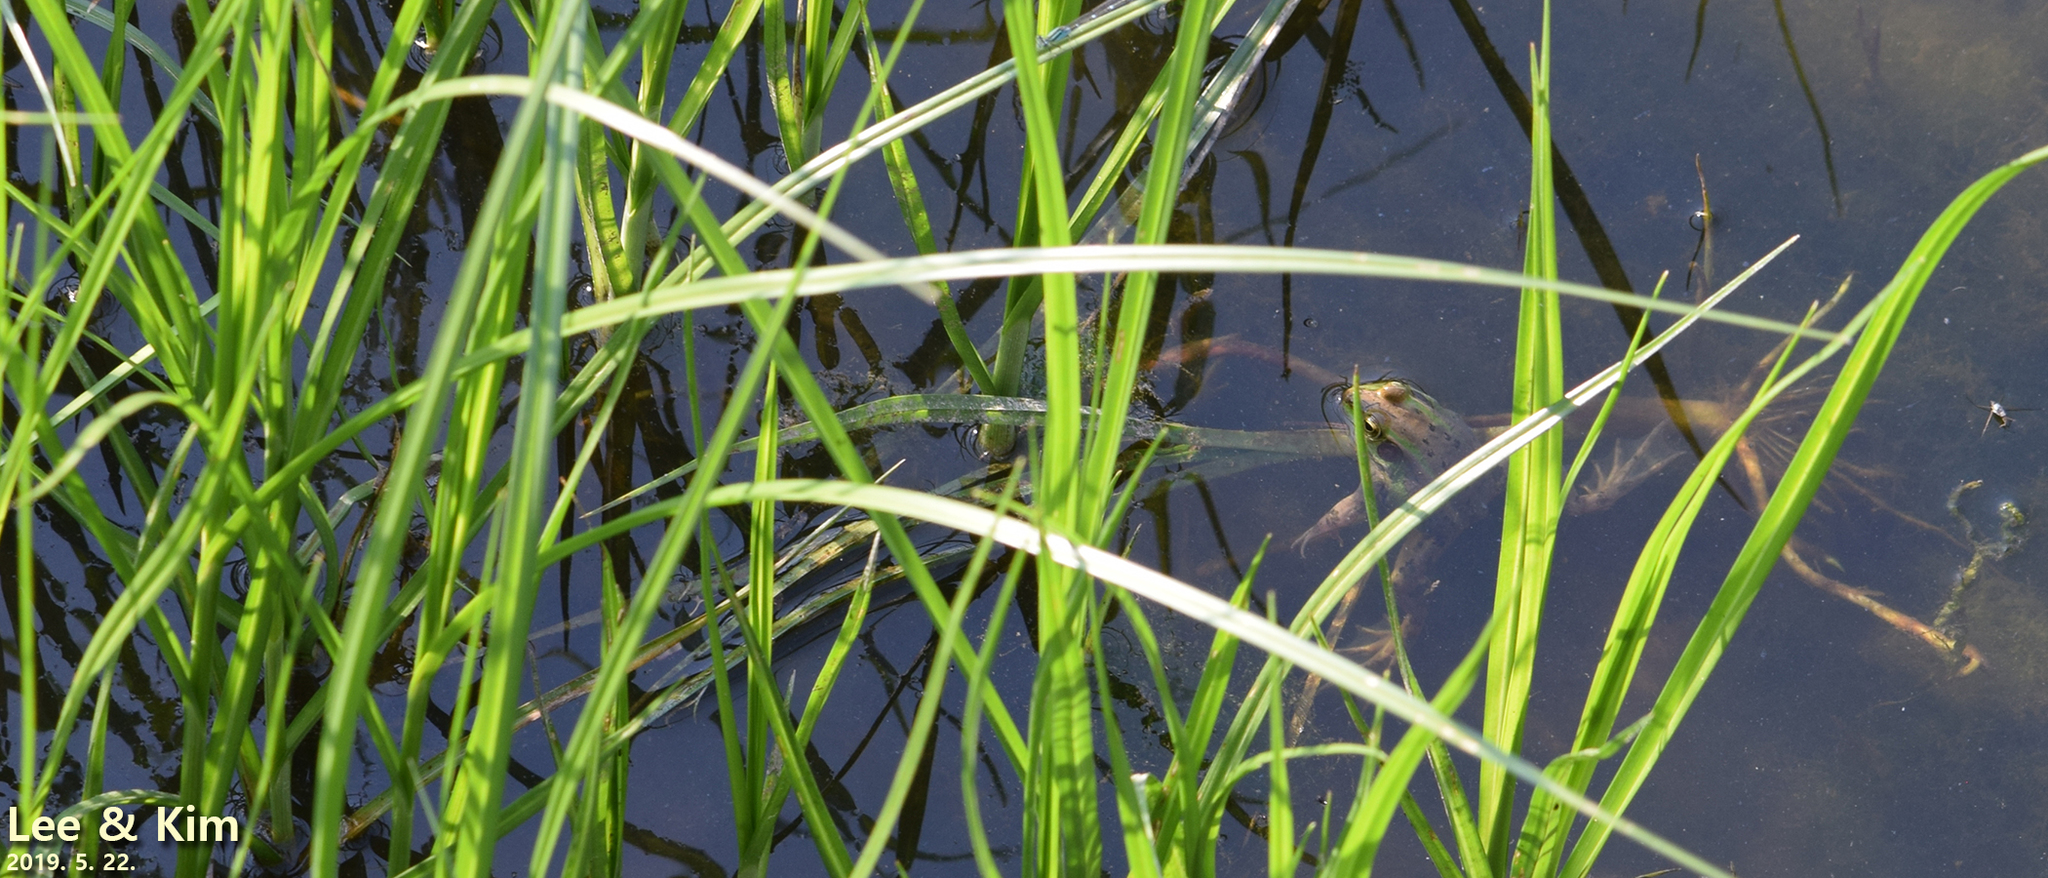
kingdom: Animalia
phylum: Chordata
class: Amphibia
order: Anura
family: Ranidae
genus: Pelophylax
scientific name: Pelophylax chosenicus
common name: Gold-spotted pond frog
